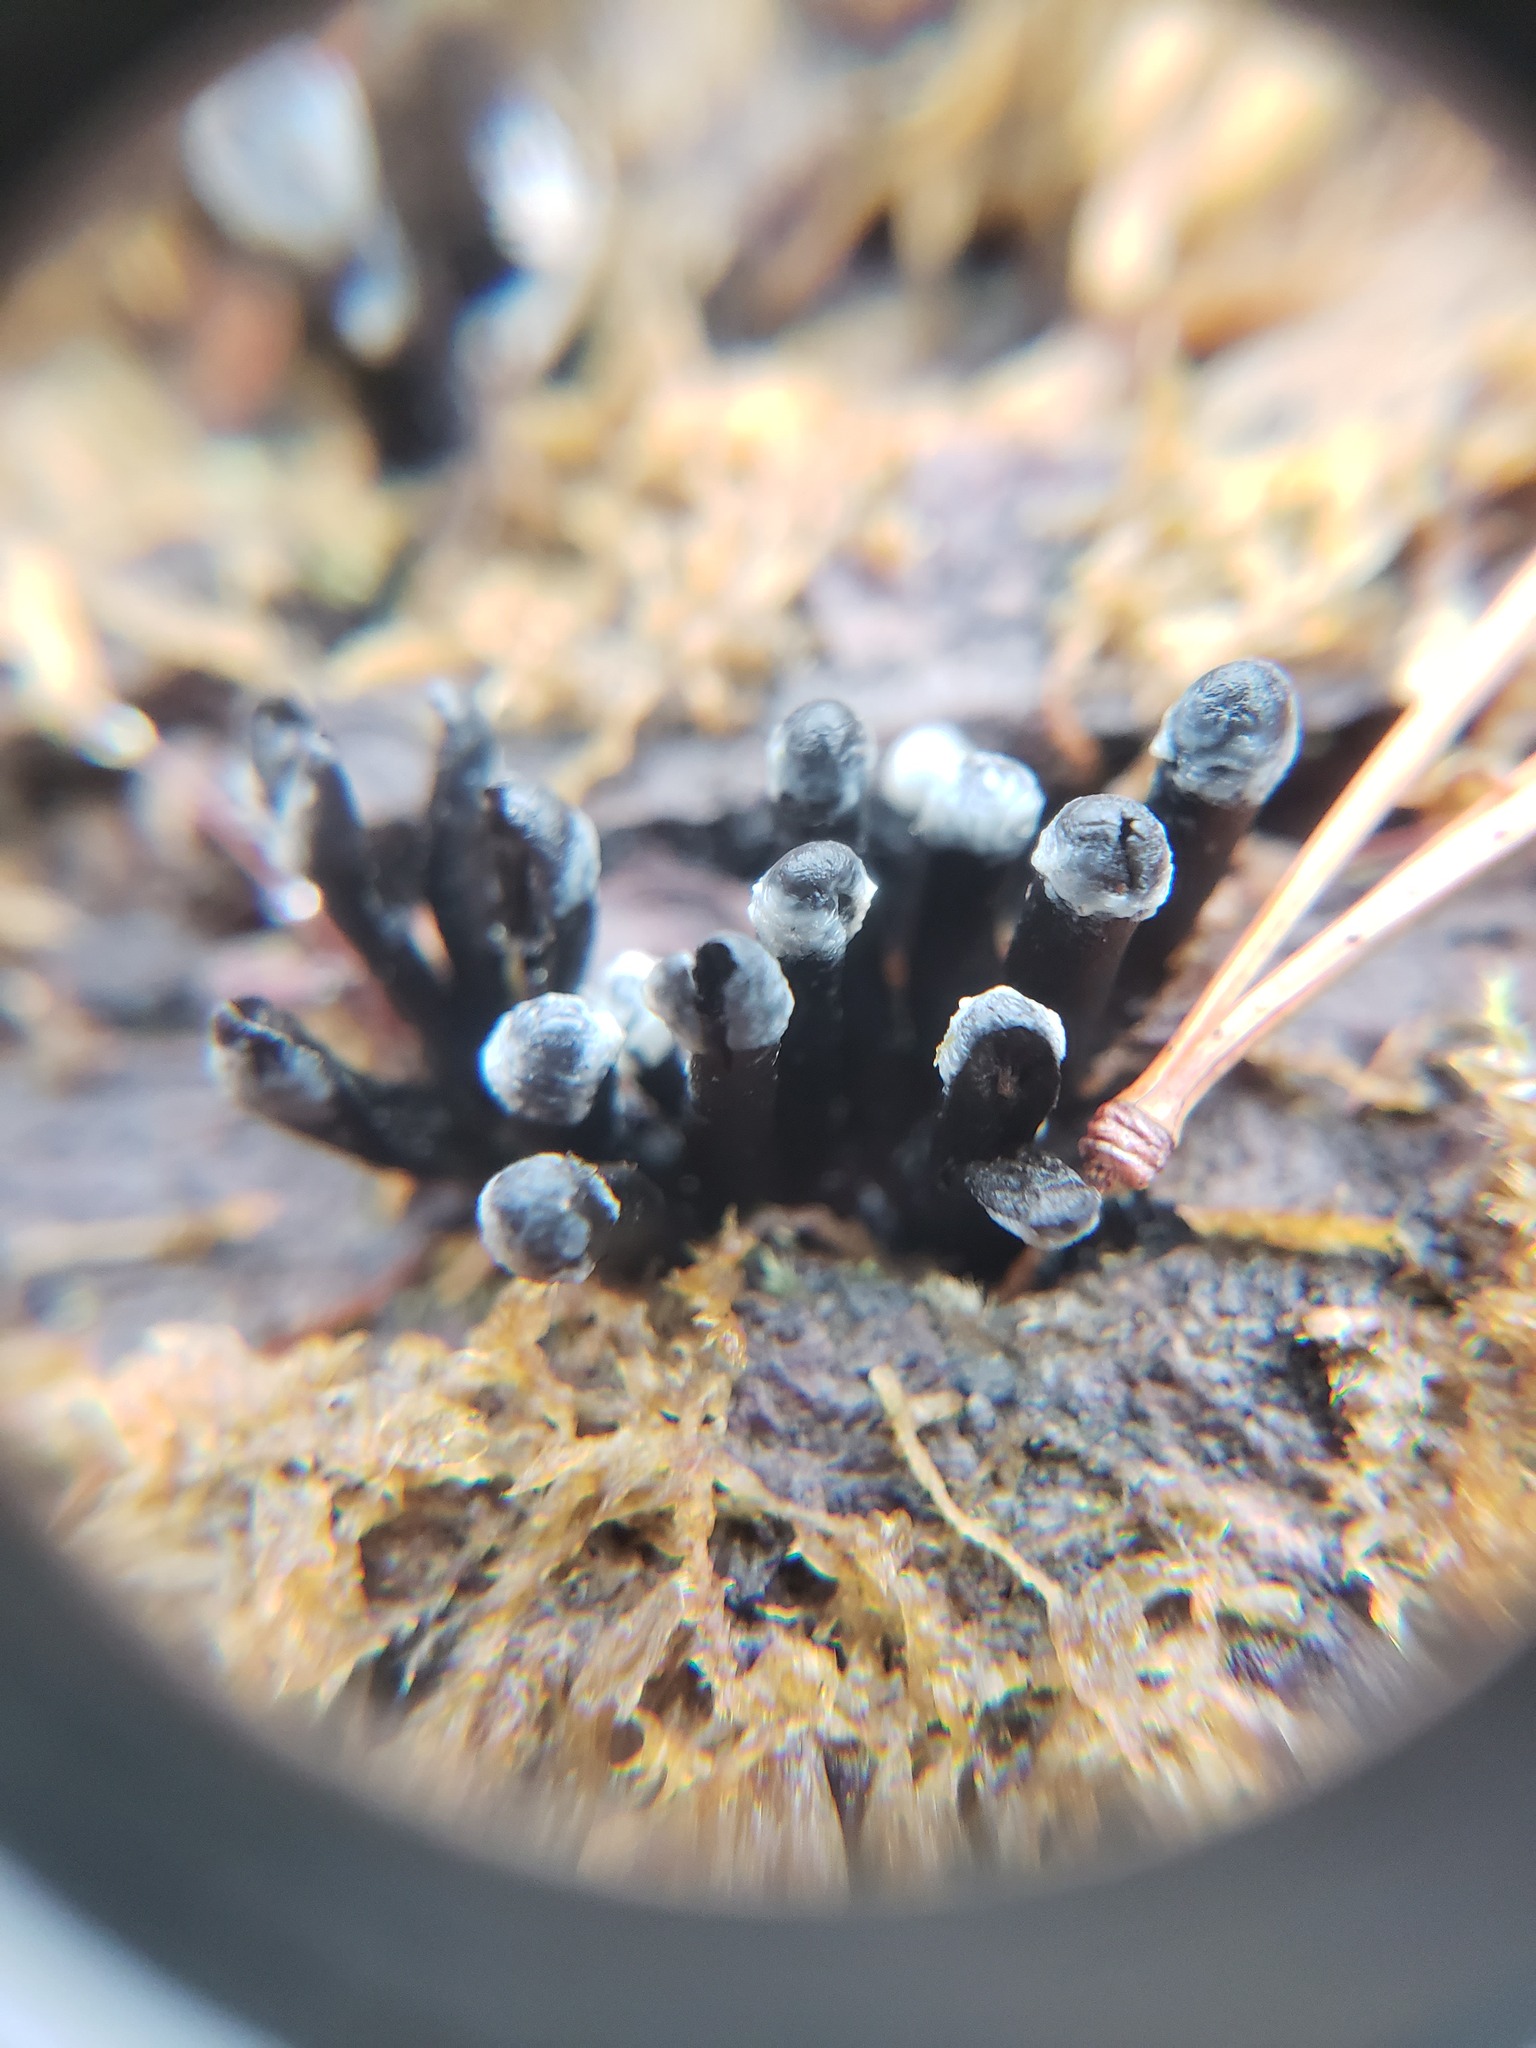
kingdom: Fungi
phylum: Ascomycota
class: Leotiomycetes
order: Helotiales
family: Bulgariaceae
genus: Holwaya
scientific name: Holwaya mucida
